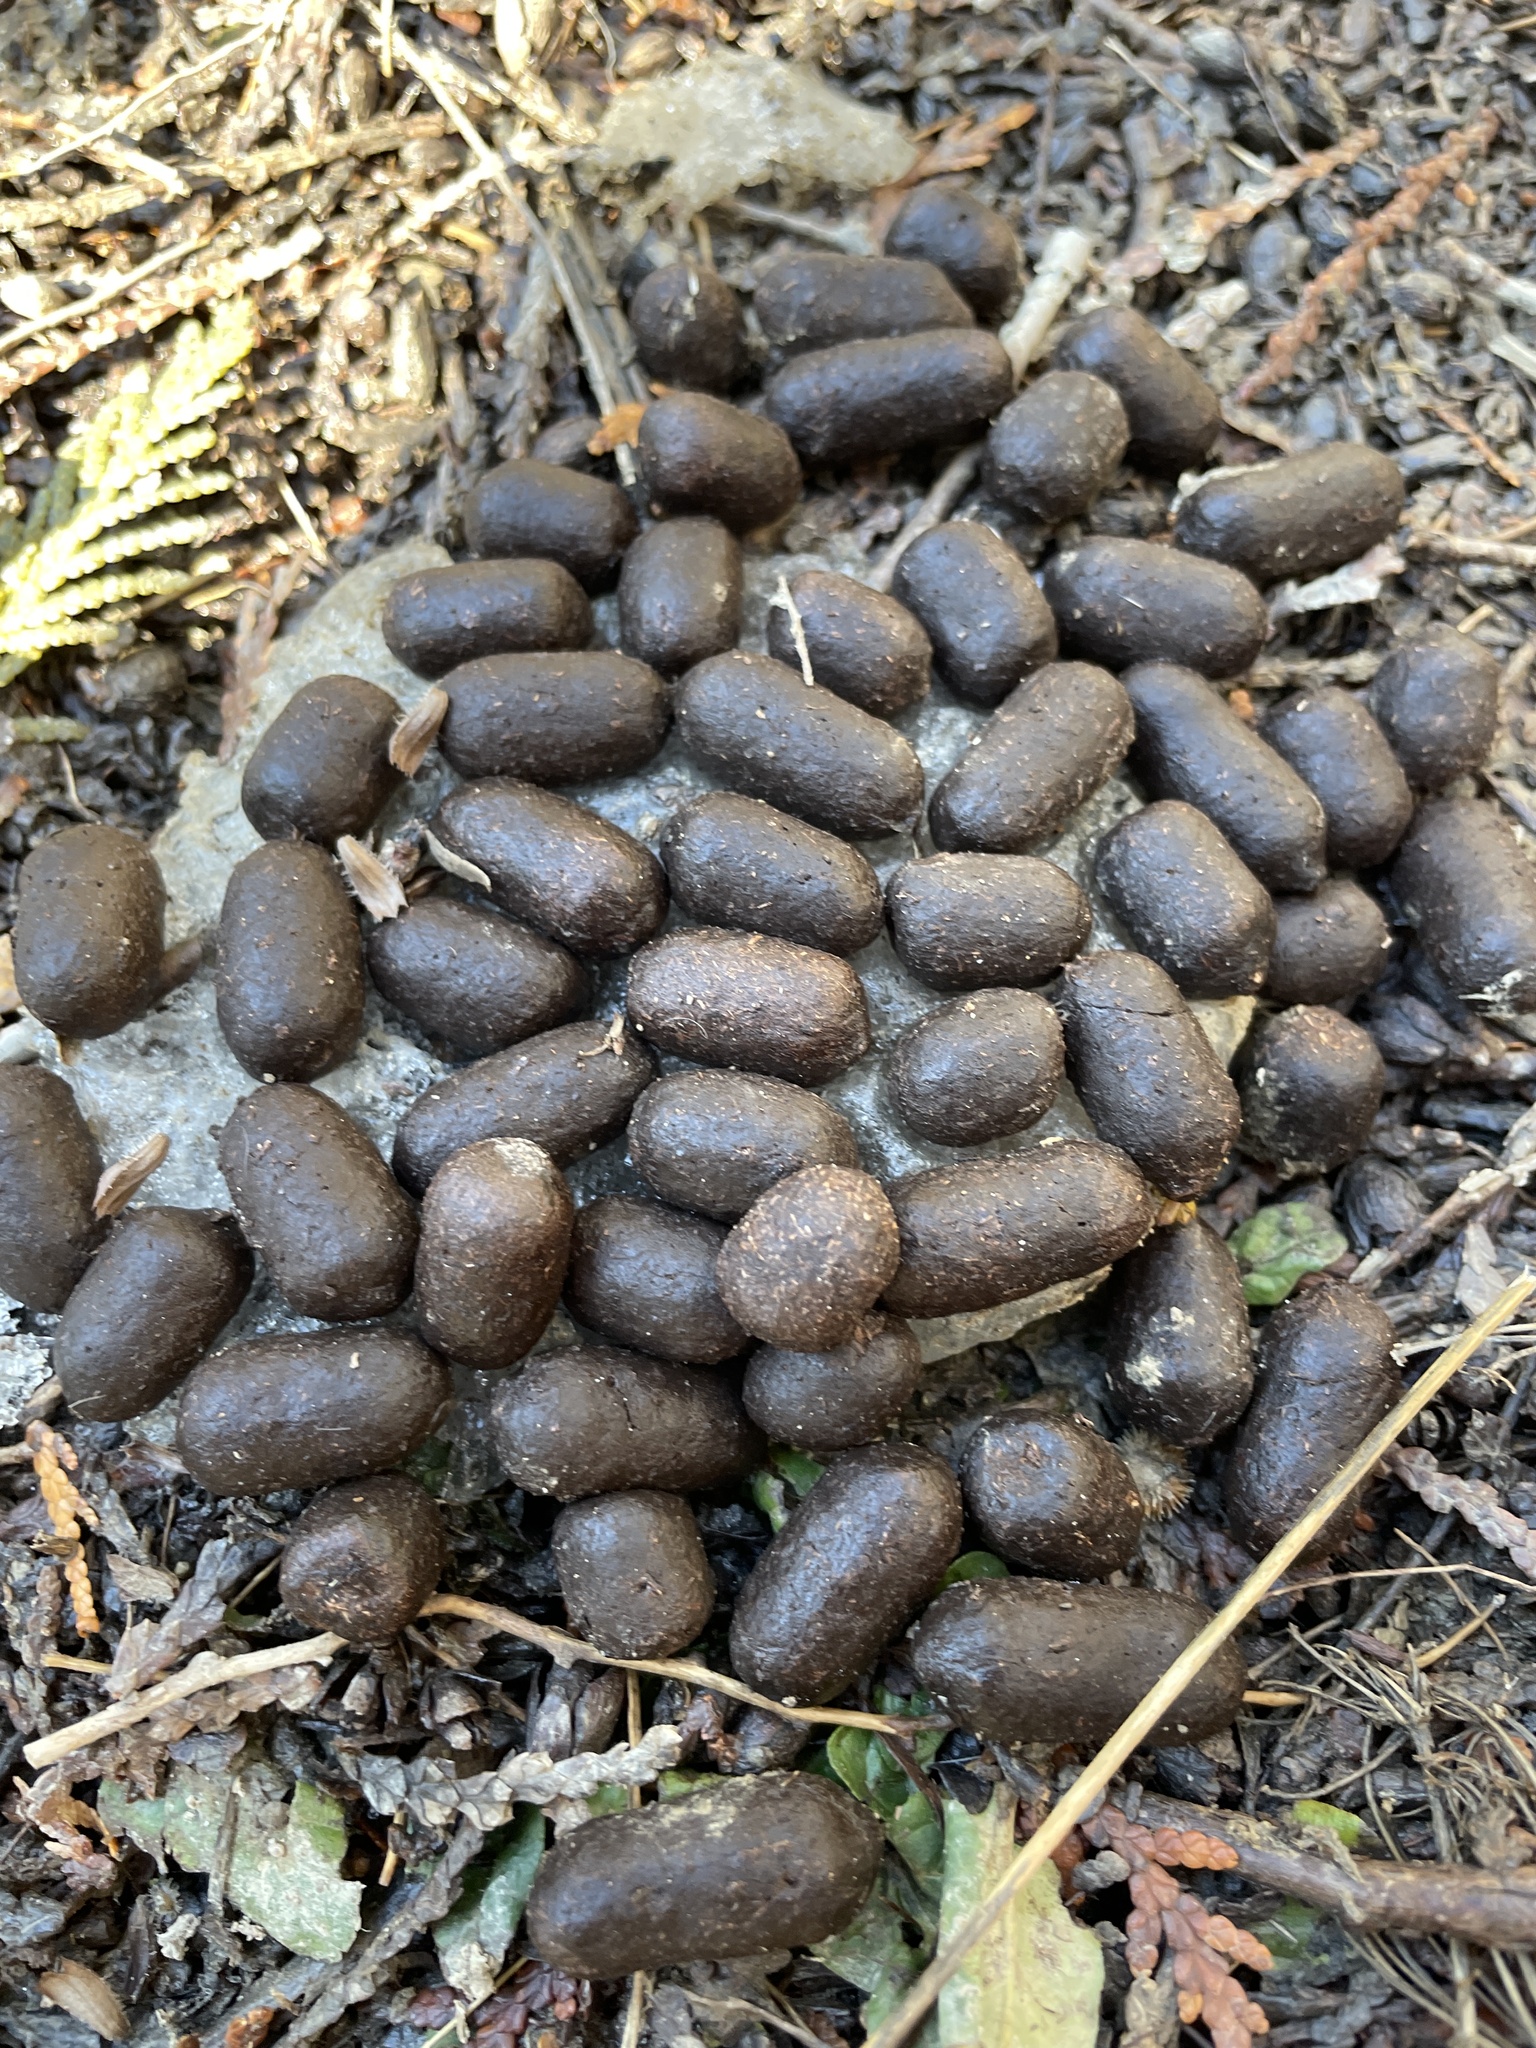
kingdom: Animalia
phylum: Chordata
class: Mammalia
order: Artiodactyla
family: Cervidae
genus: Odocoileus
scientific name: Odocoileus virginianus
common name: White-tailed deer
